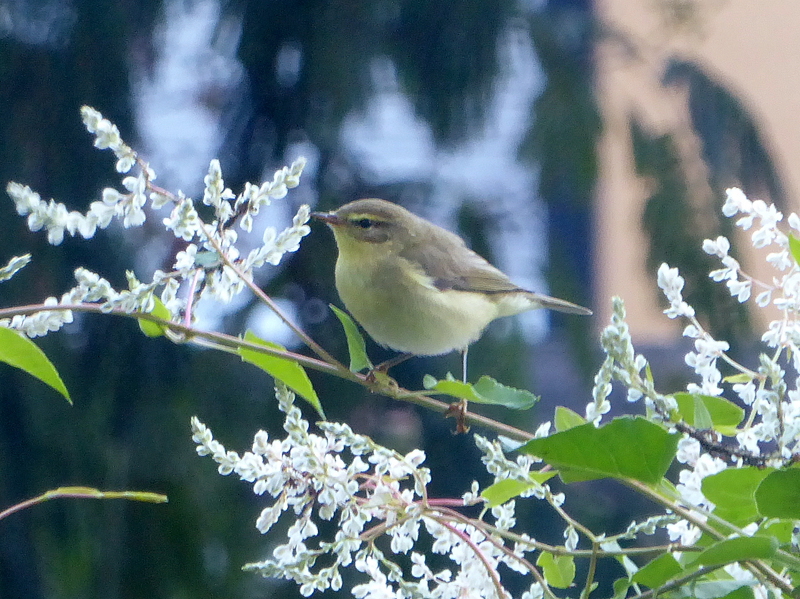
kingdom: Animalia
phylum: Chordata
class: Aves
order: Passeriformes
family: Phylloscopidae
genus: Phylloscopus
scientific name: Phylloscopus trochilus
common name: Willow warbler
